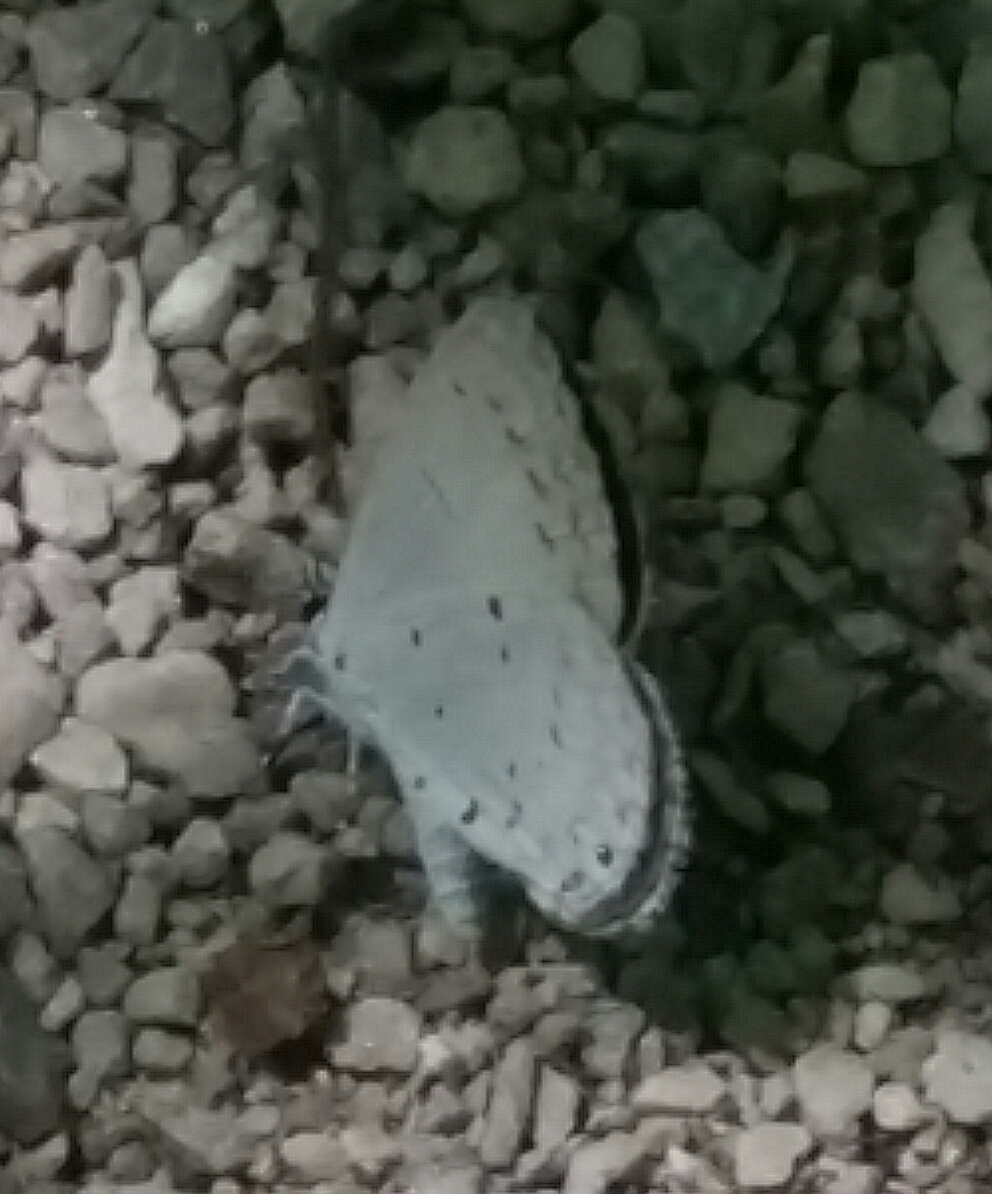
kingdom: Animalia
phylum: Arthropoda
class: Insecta
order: Lepidoptera
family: Lycaenidae
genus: Cyaniris
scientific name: Cyaniris neglecta
